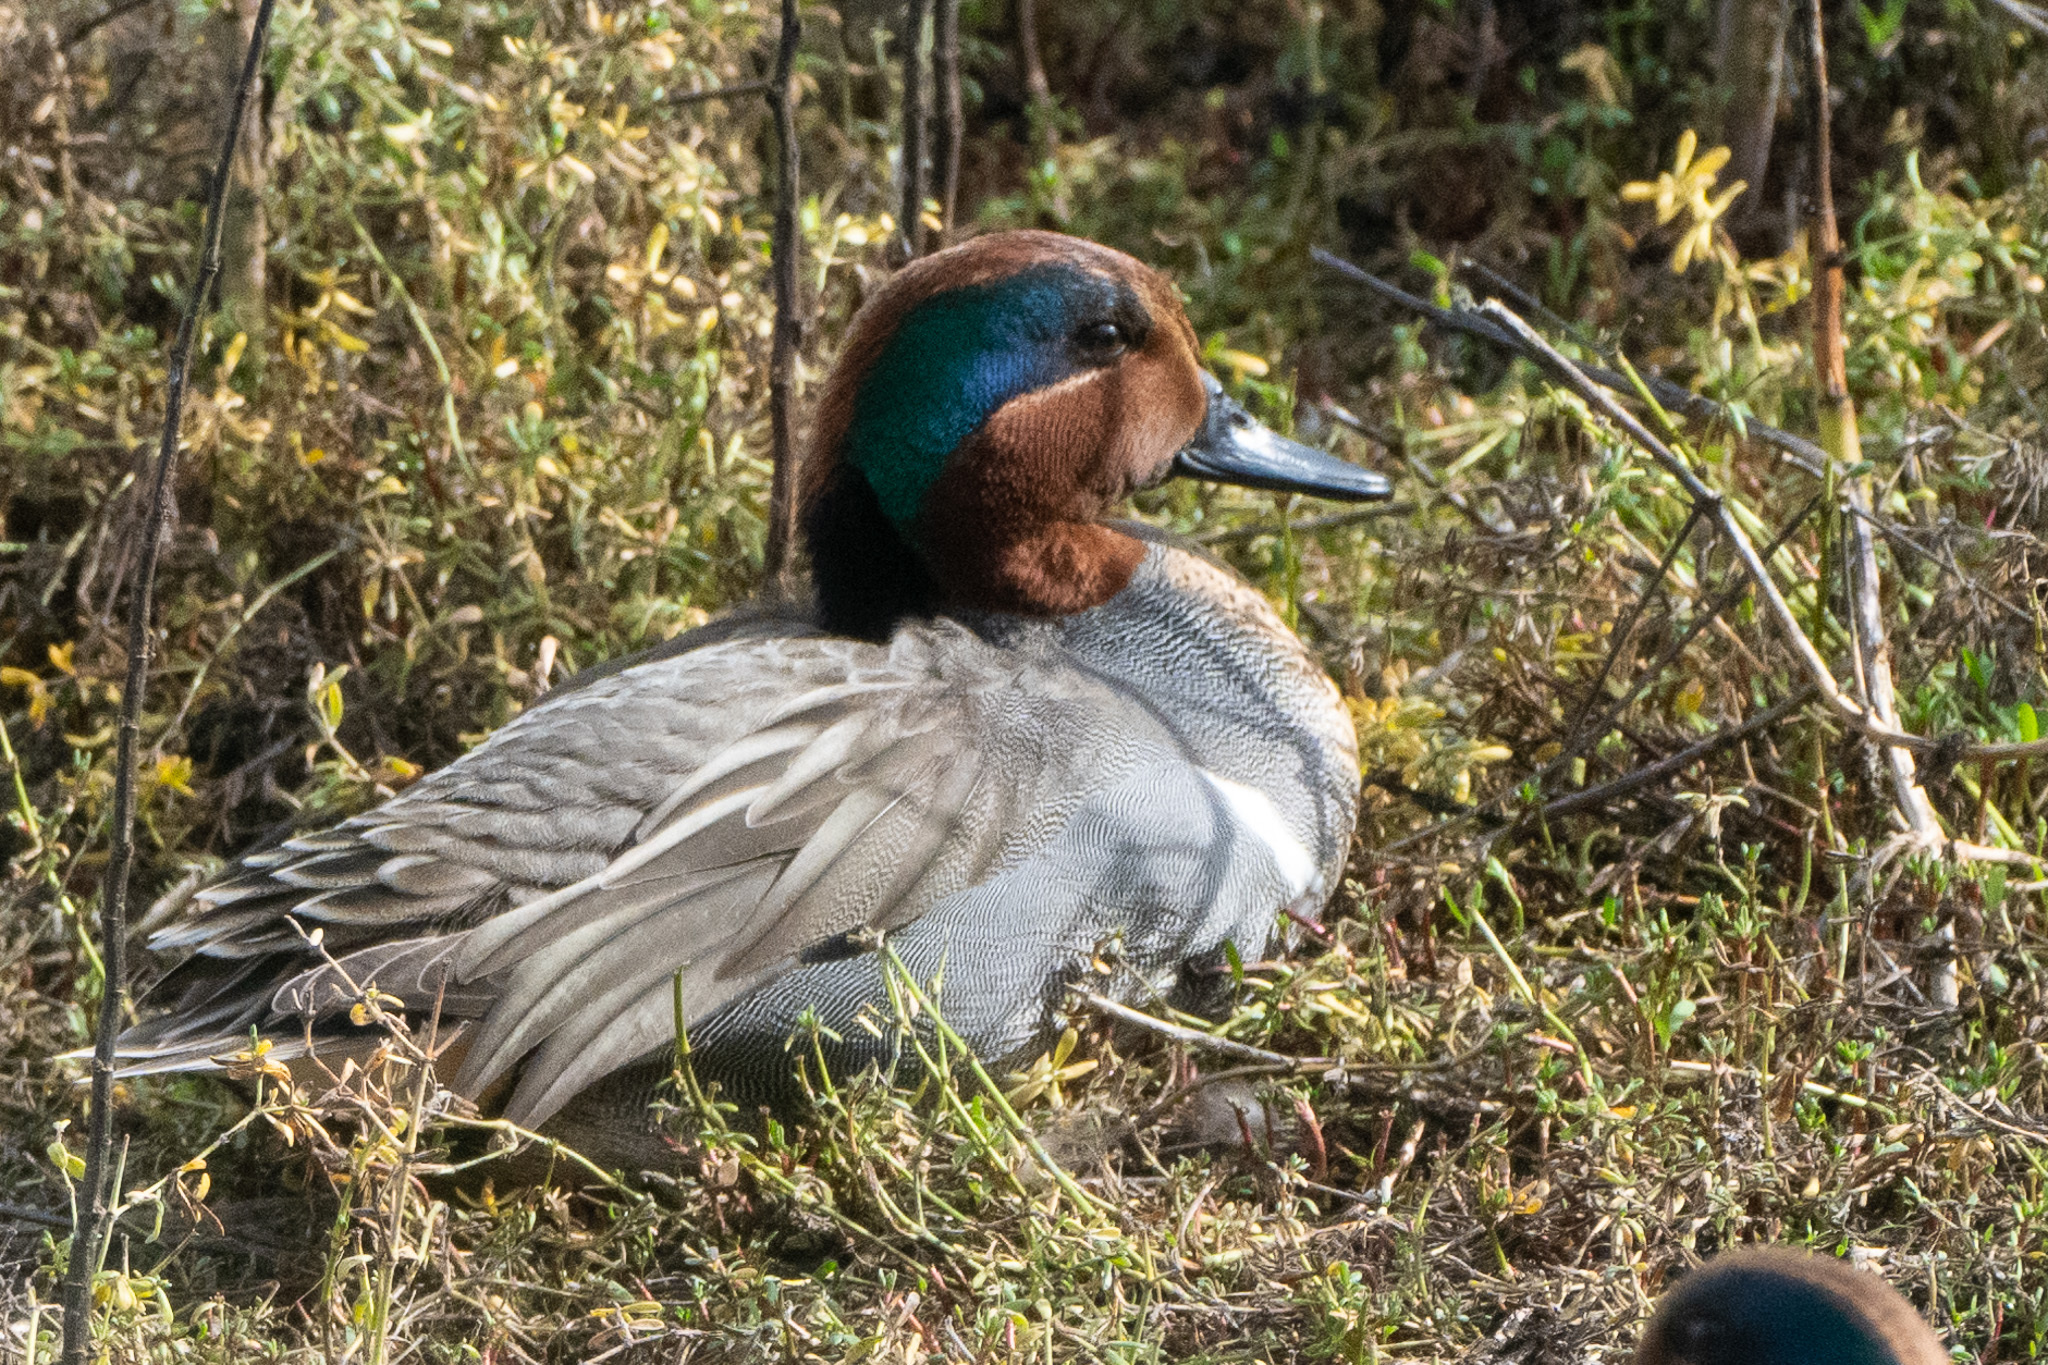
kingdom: Animalia
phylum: Chordata
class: Aves
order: Anseriformes
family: Anatidae
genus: Anas
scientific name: Anas crecca
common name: Eurasian teal
